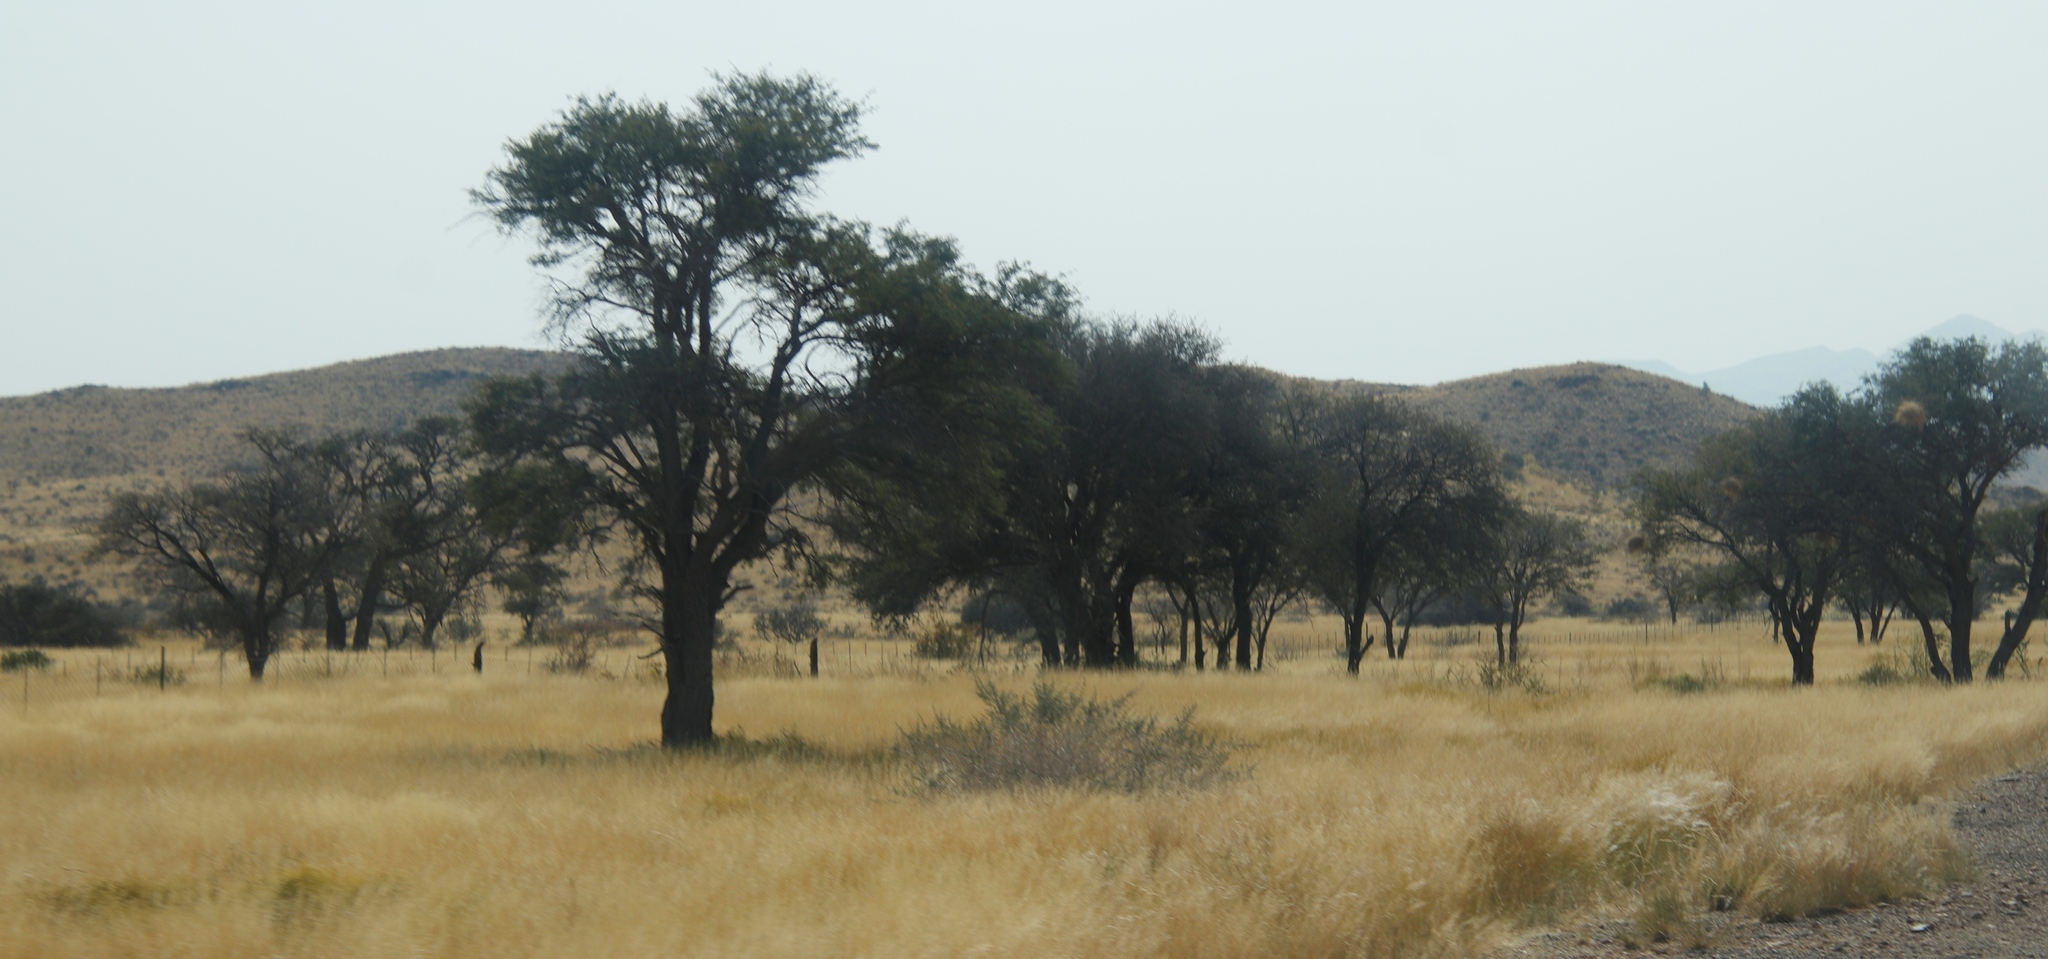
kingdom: Plantae
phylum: Tracheophyta
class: Magnoliopsida
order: Fabales
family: Fabaceae
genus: Vachellia
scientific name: Vachellia erioloba
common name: Camel thorn
